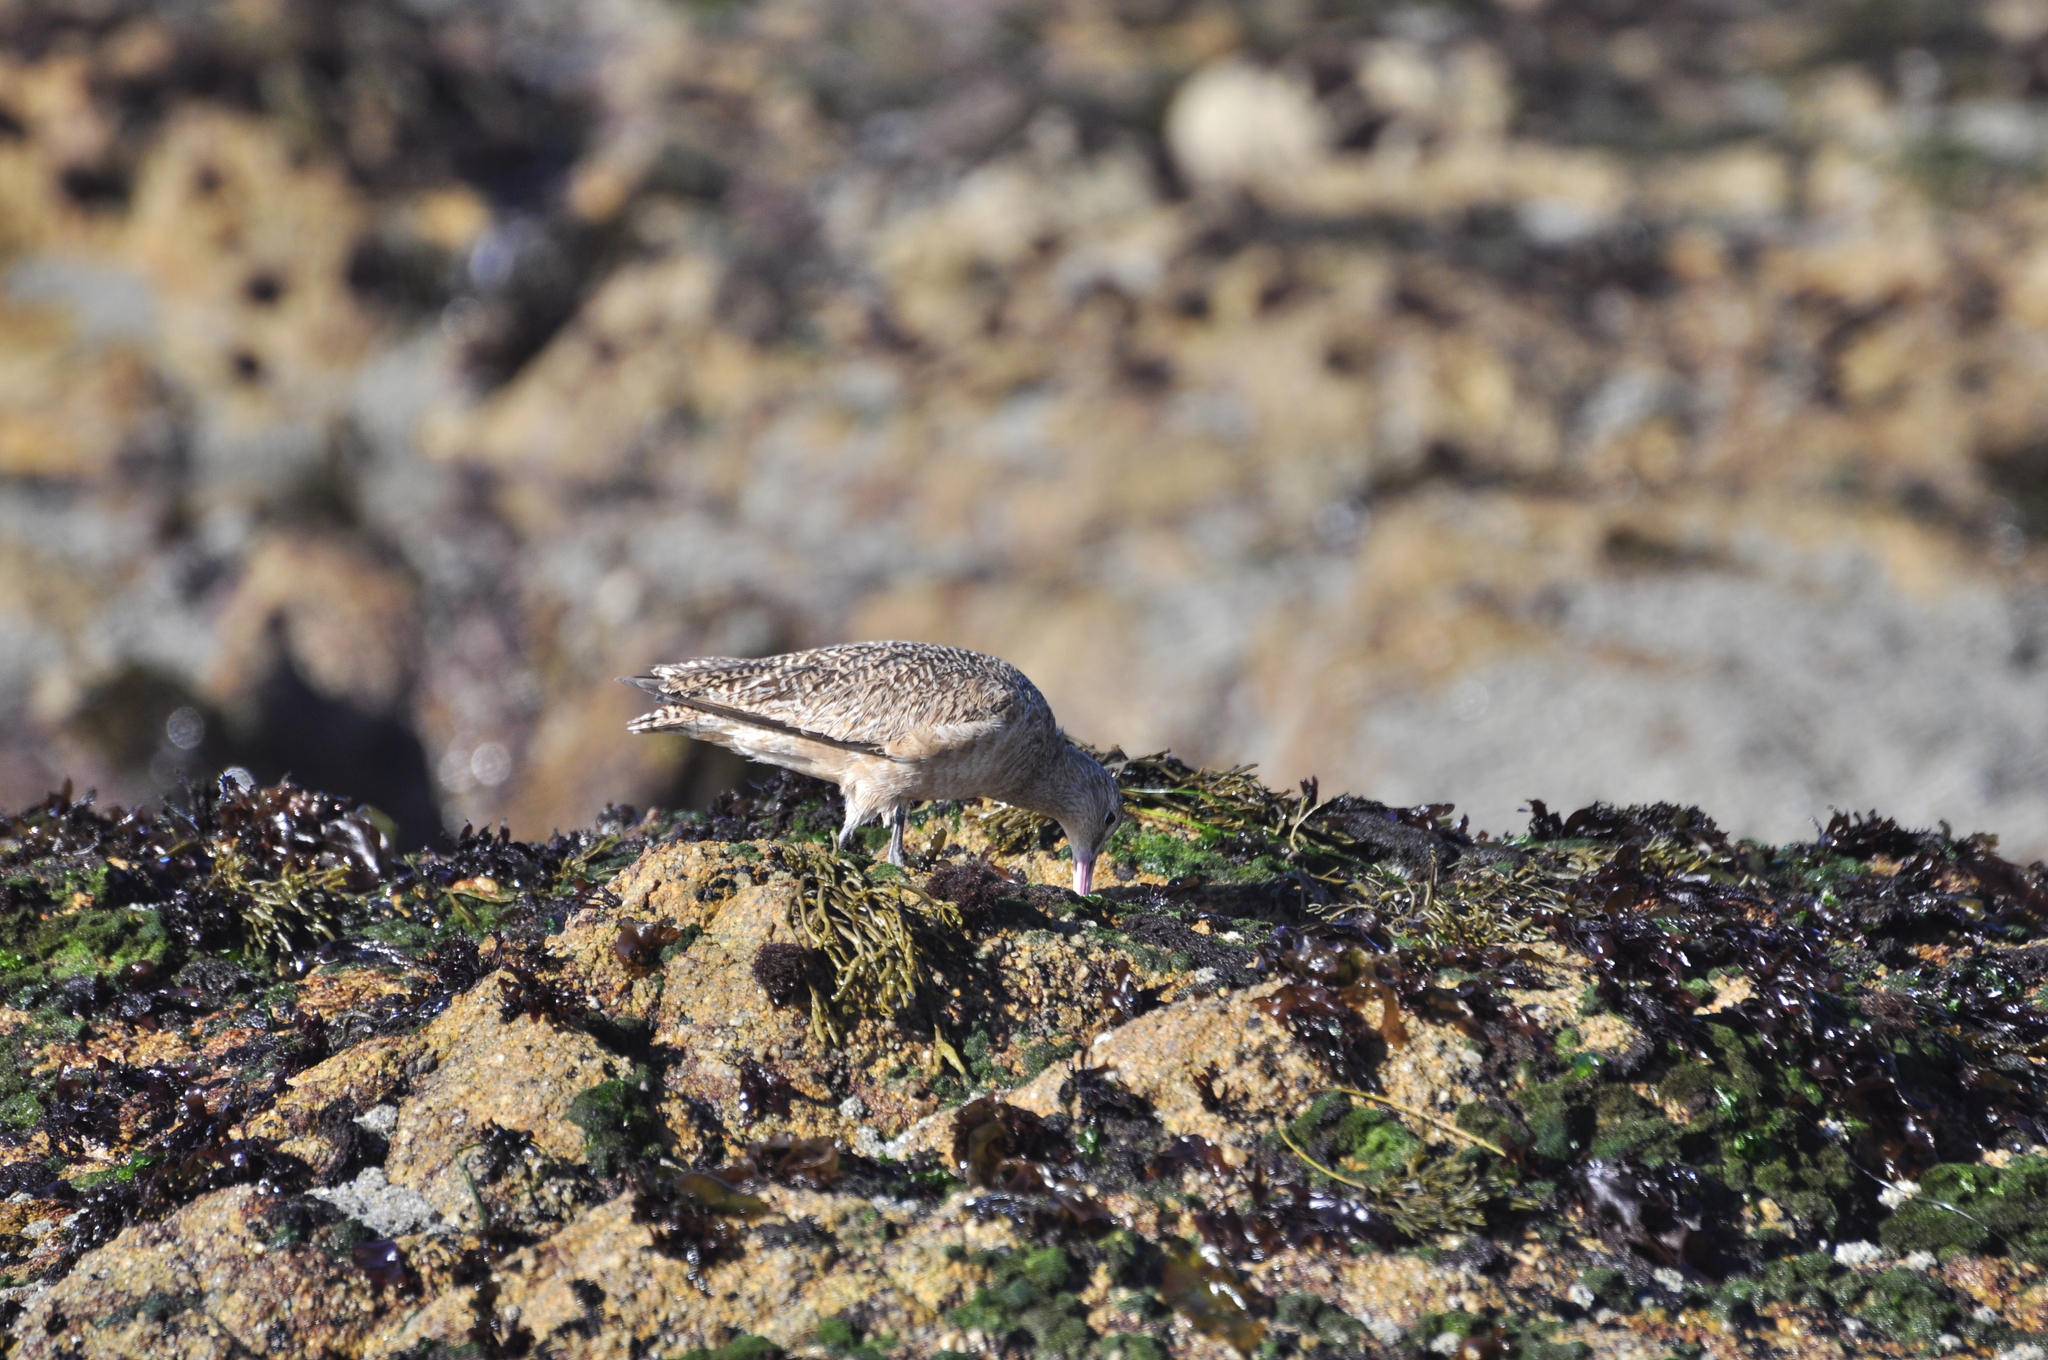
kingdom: Animalia
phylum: Chordata
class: Aves
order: Charadriiformes
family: Scolopacidae
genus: Limosa
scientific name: Limosa fedoa
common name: Marbled godwit
